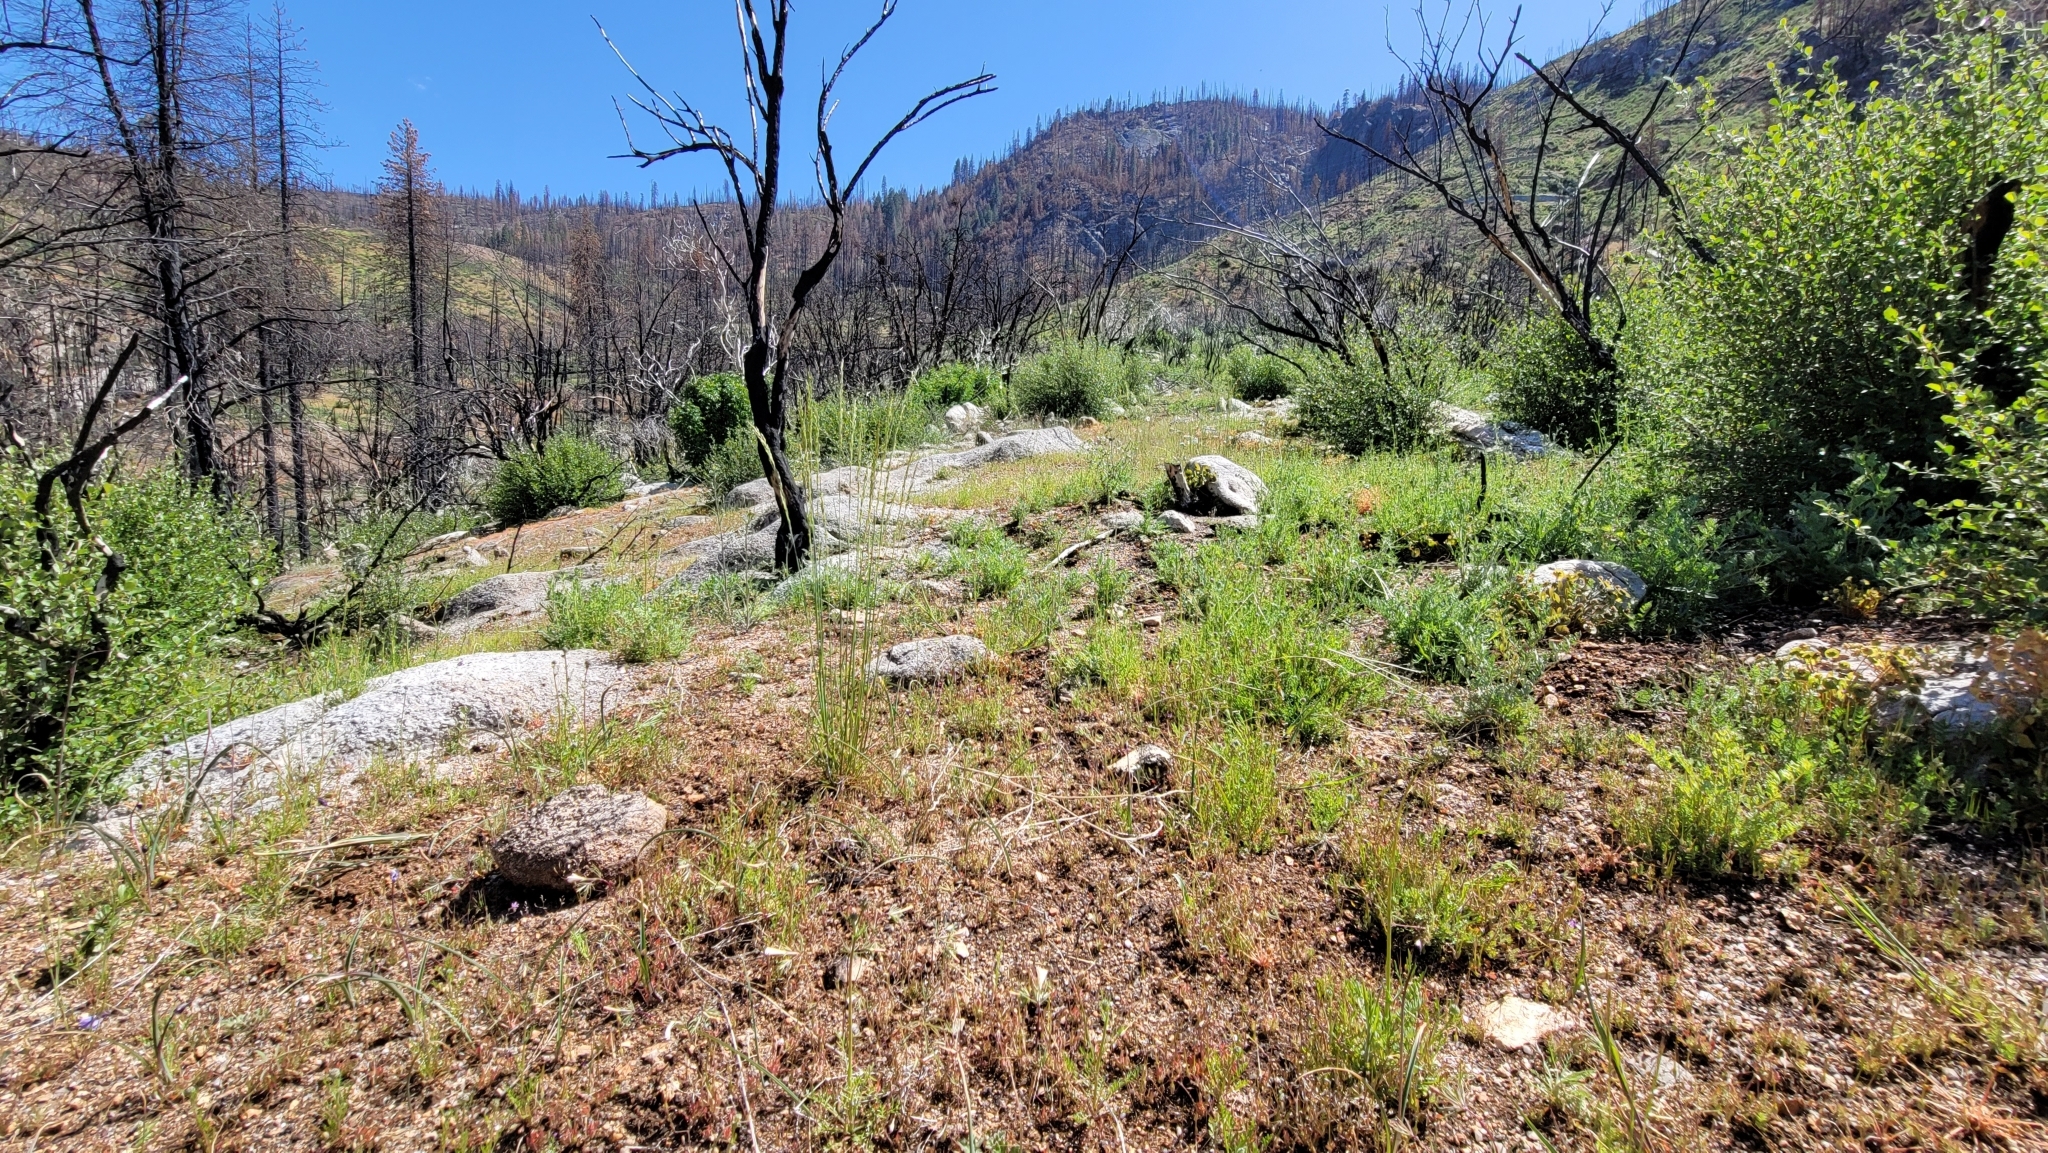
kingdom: Plantae
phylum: Tracheophyta
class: Magnoliopsida
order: Ericales
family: Polemoniaceae
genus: Linanthus
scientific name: Linanthus dichotomus
